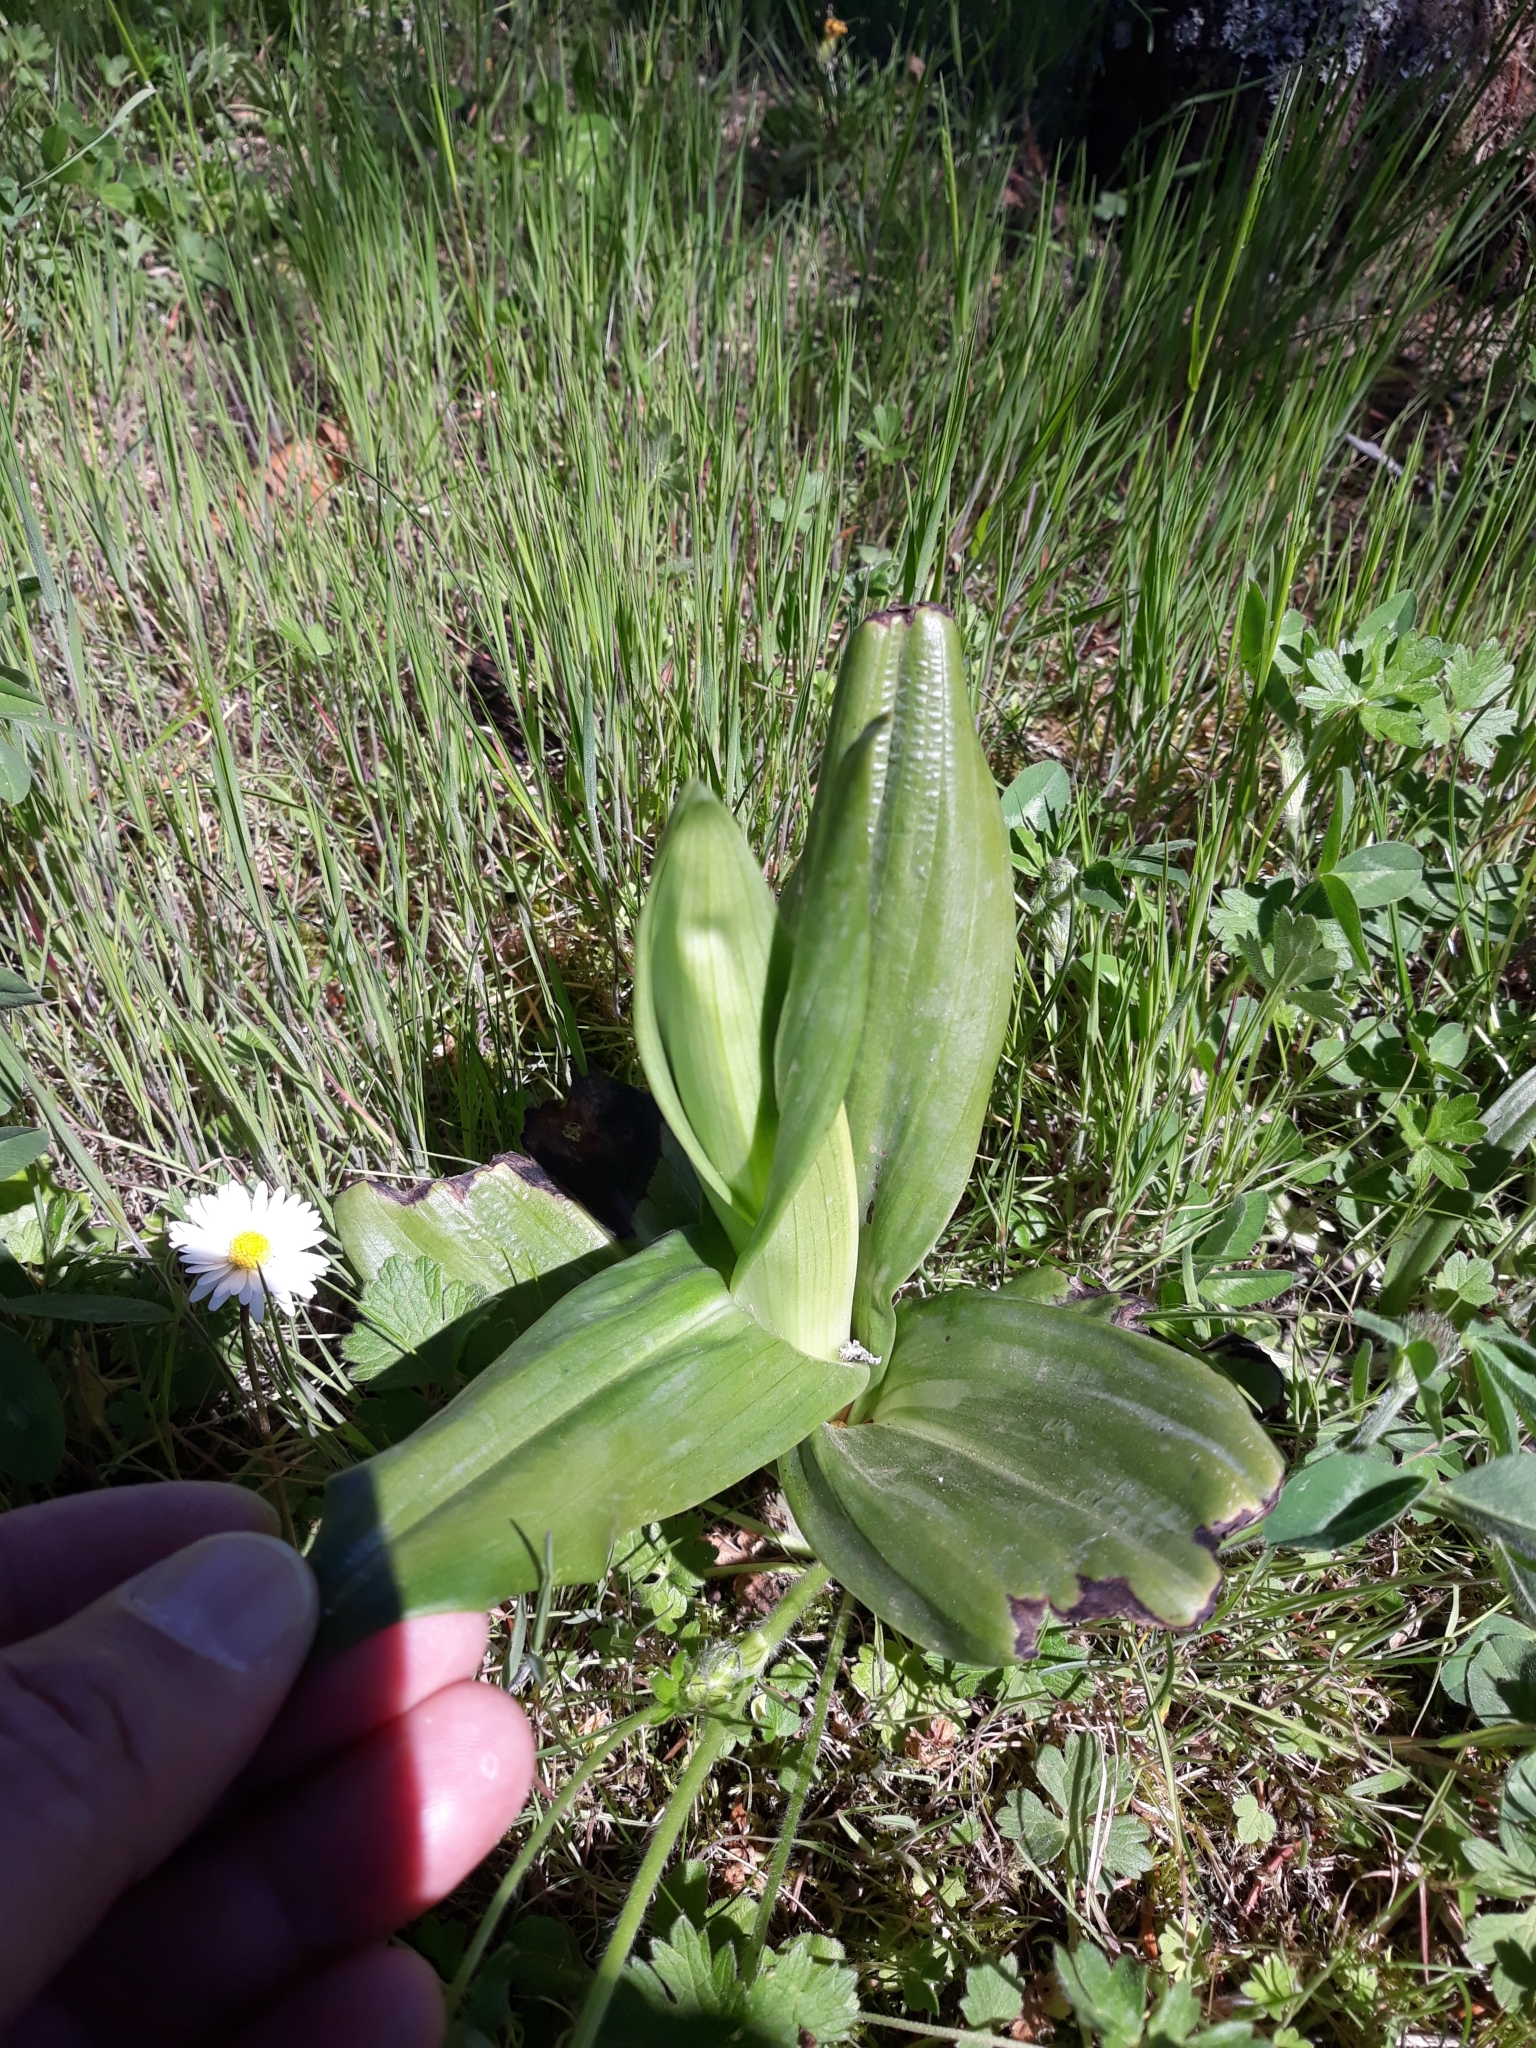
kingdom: Plantae
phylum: Tracheophyta
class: Liliopsida
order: Asparagales
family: Orchidaceae
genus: Himantoglossum
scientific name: Himantoglossum hircinum
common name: Lizard orchid
